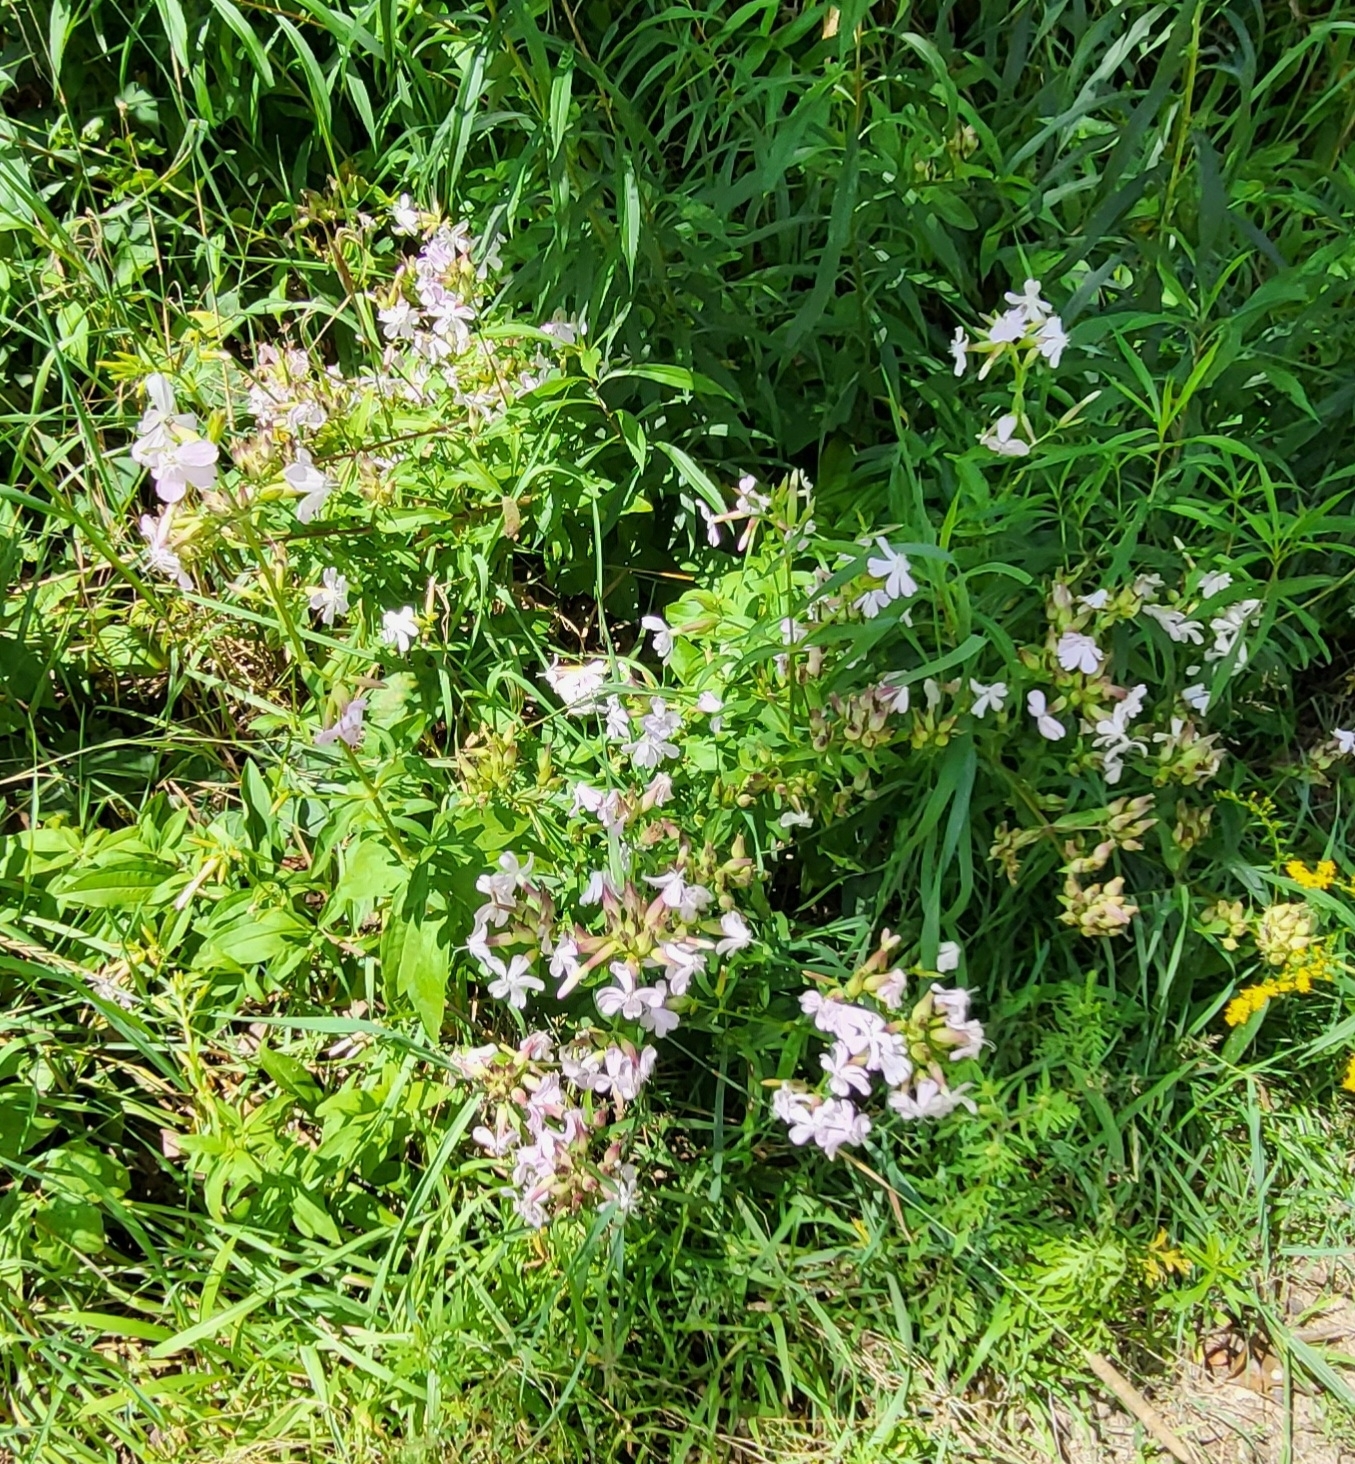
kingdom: Plantae
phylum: Tracheophyta
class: Magnoliopsida
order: Caryophyllales
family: Caryophyllaceae
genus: Saponaria
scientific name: Saponaria officinalis
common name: Soapwort
